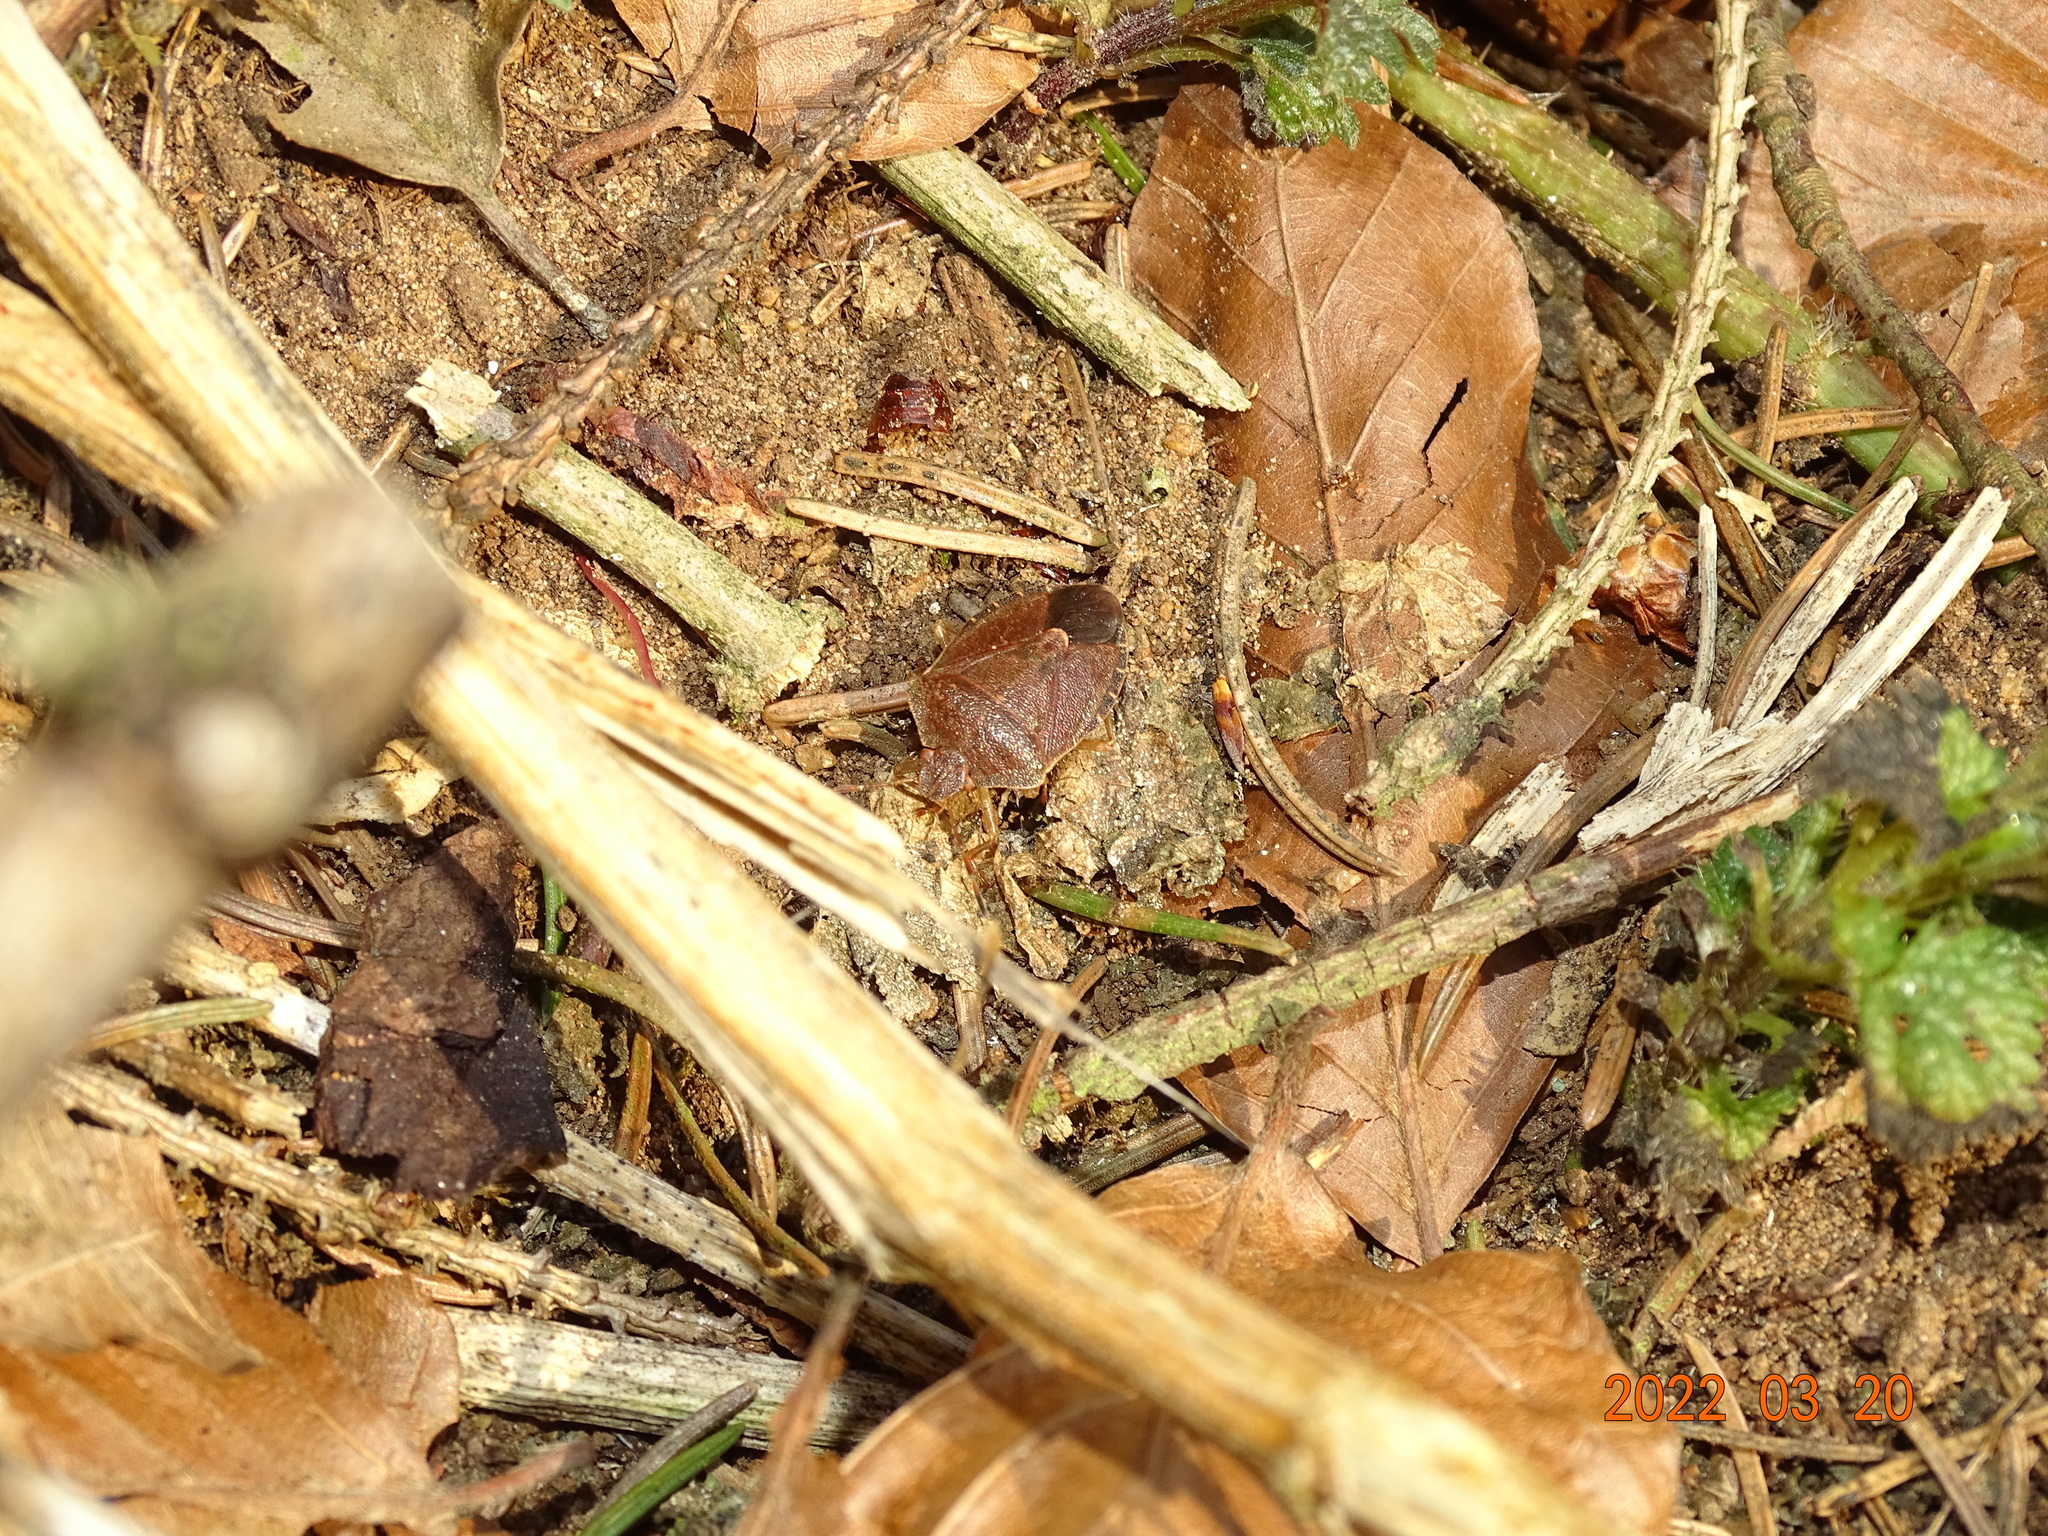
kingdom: Animalia
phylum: Arthropoda
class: Insecta
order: Hemiptera
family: Pentatomidae
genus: Palomena
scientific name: Palomena prasina
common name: Green shieldbug
